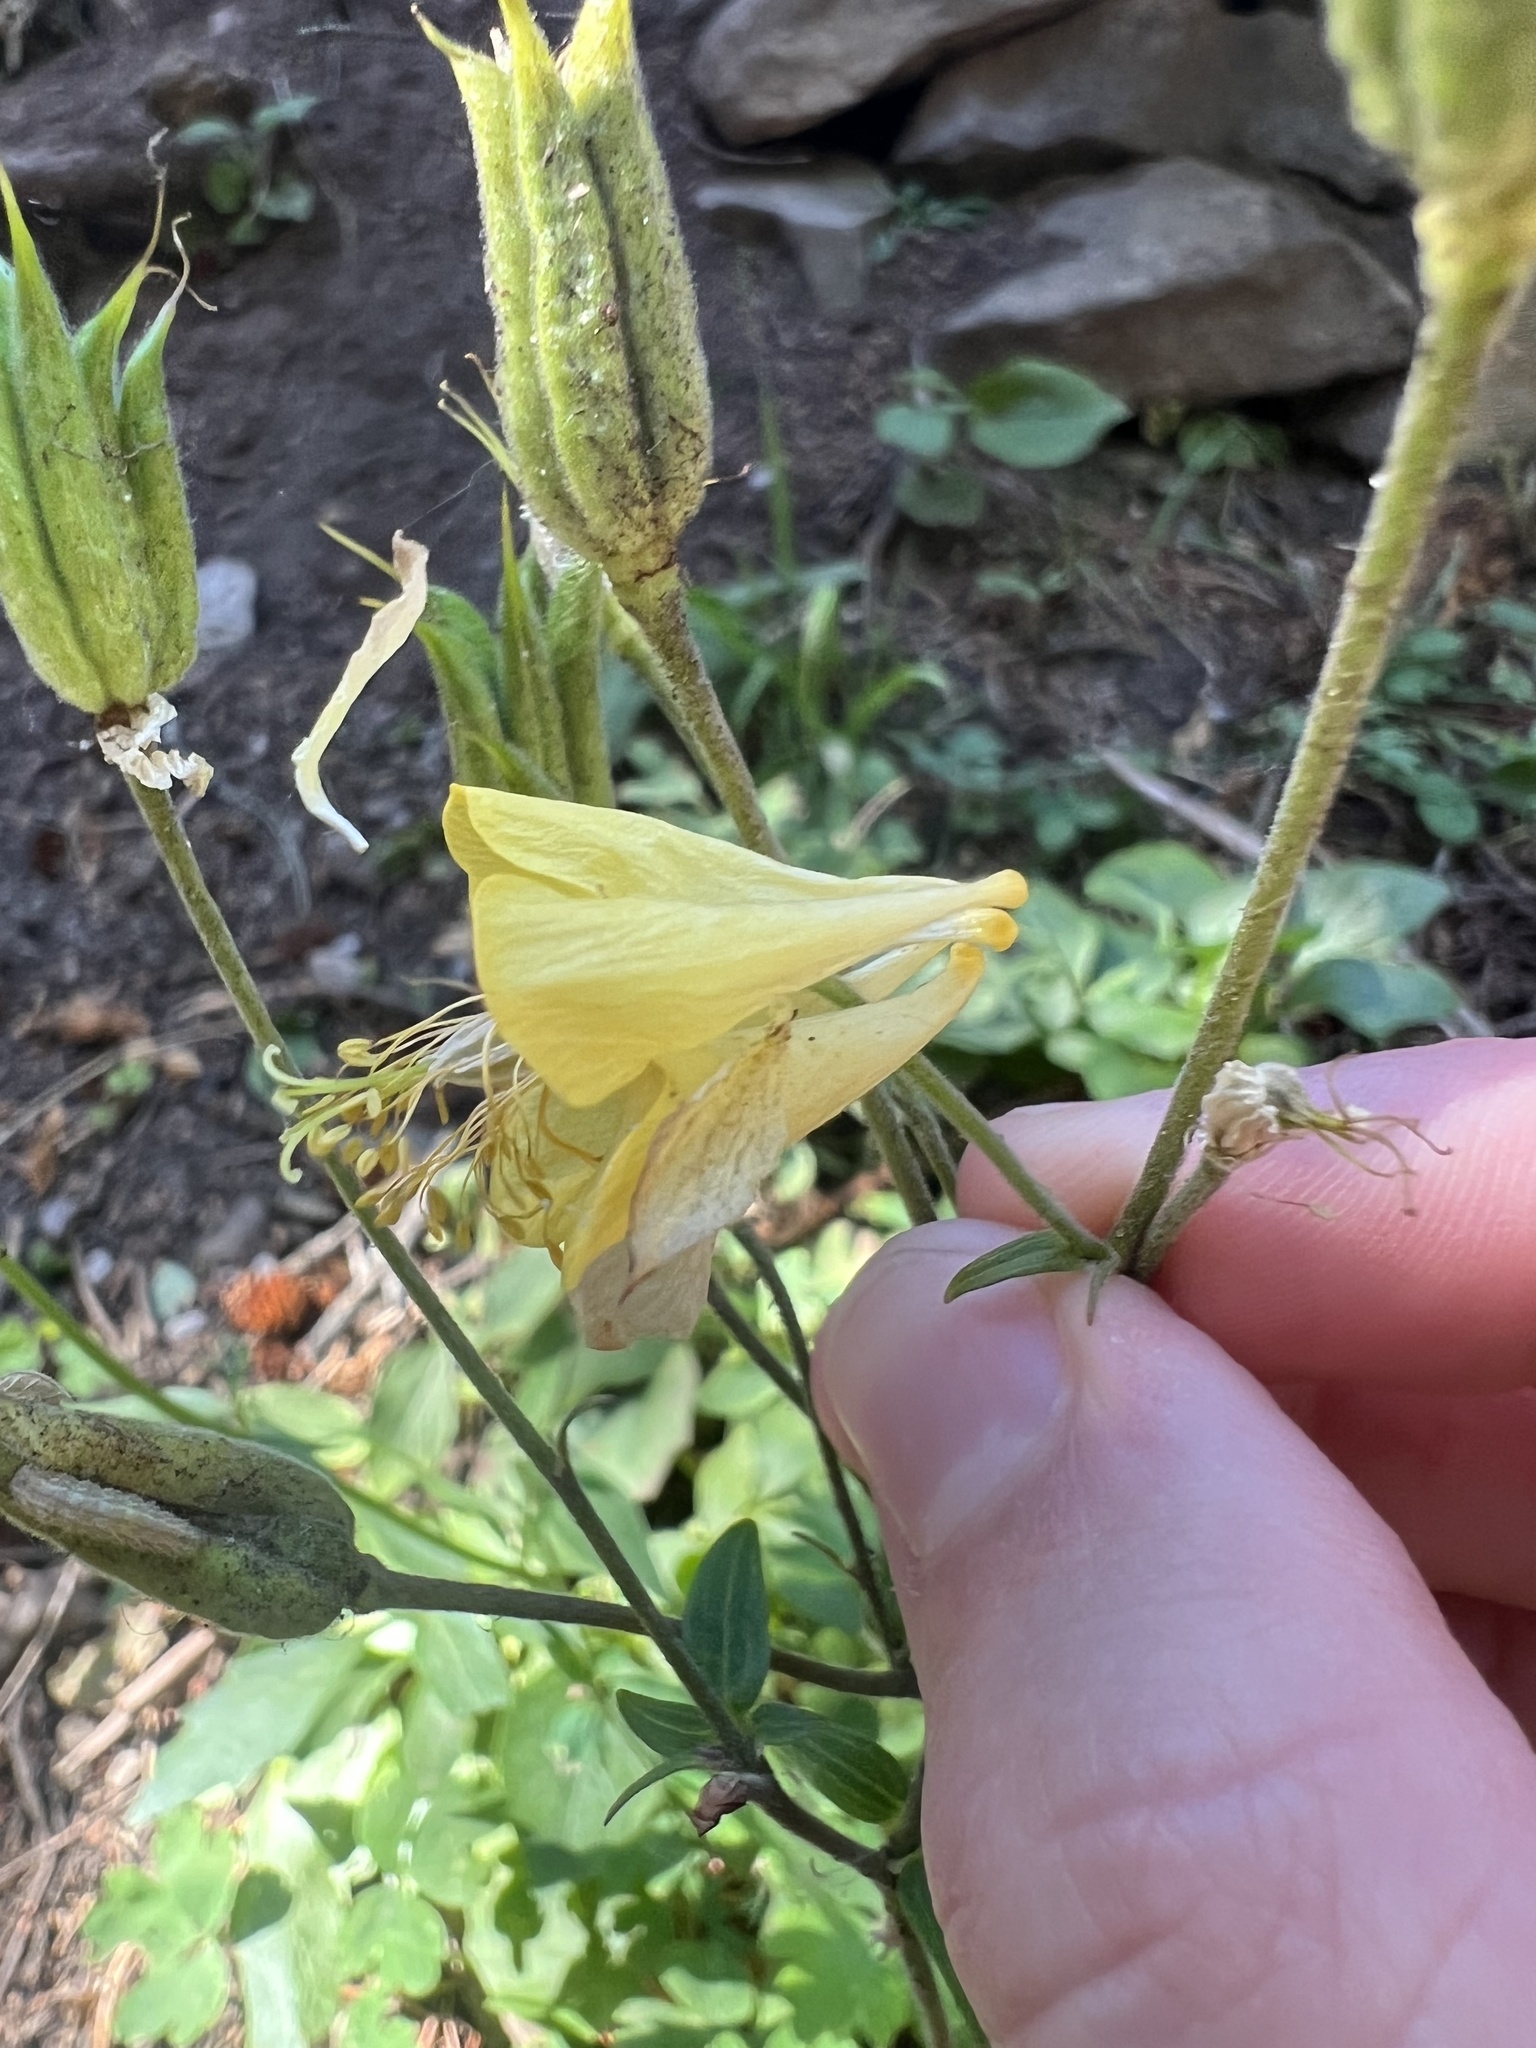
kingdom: Plantae
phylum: Tracheophyta
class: Magnoliopsida
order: Ranunculales
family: Ranunculaceae
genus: Aquilegia
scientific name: Aquilegia flavescens
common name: Yellow columbine
